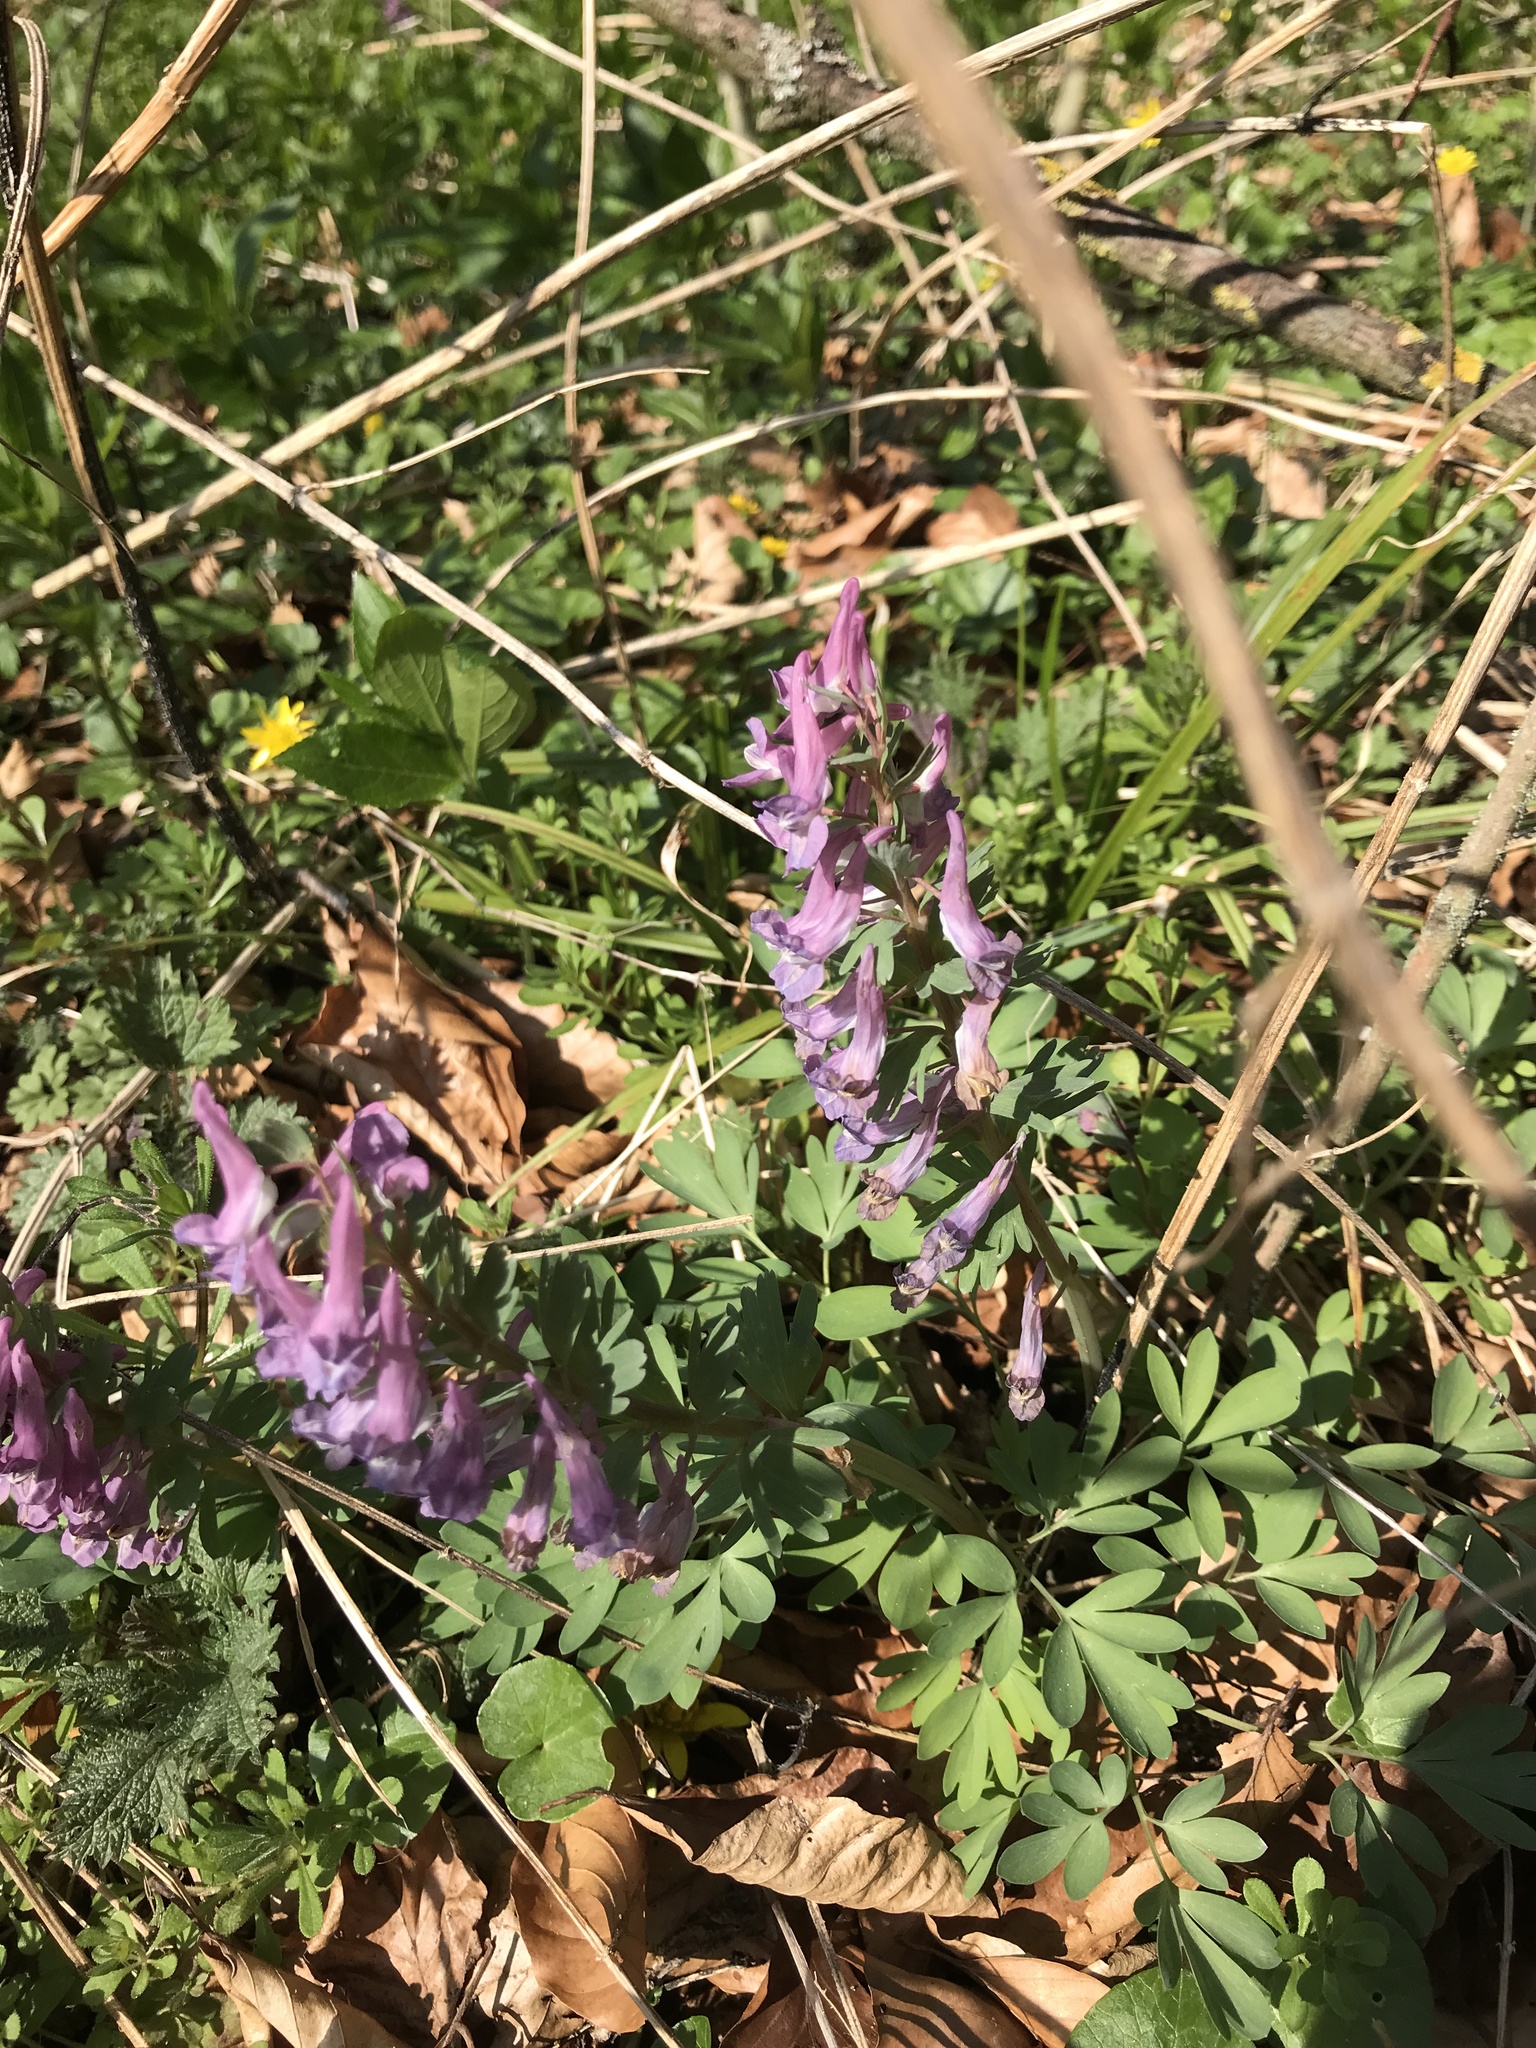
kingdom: Plantae
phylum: Tracheophyta
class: Magnoliopsida
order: Ranunculales
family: Papaveraceae
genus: Corydalis
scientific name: Corydalis solida
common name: Bird-in-a-bush
